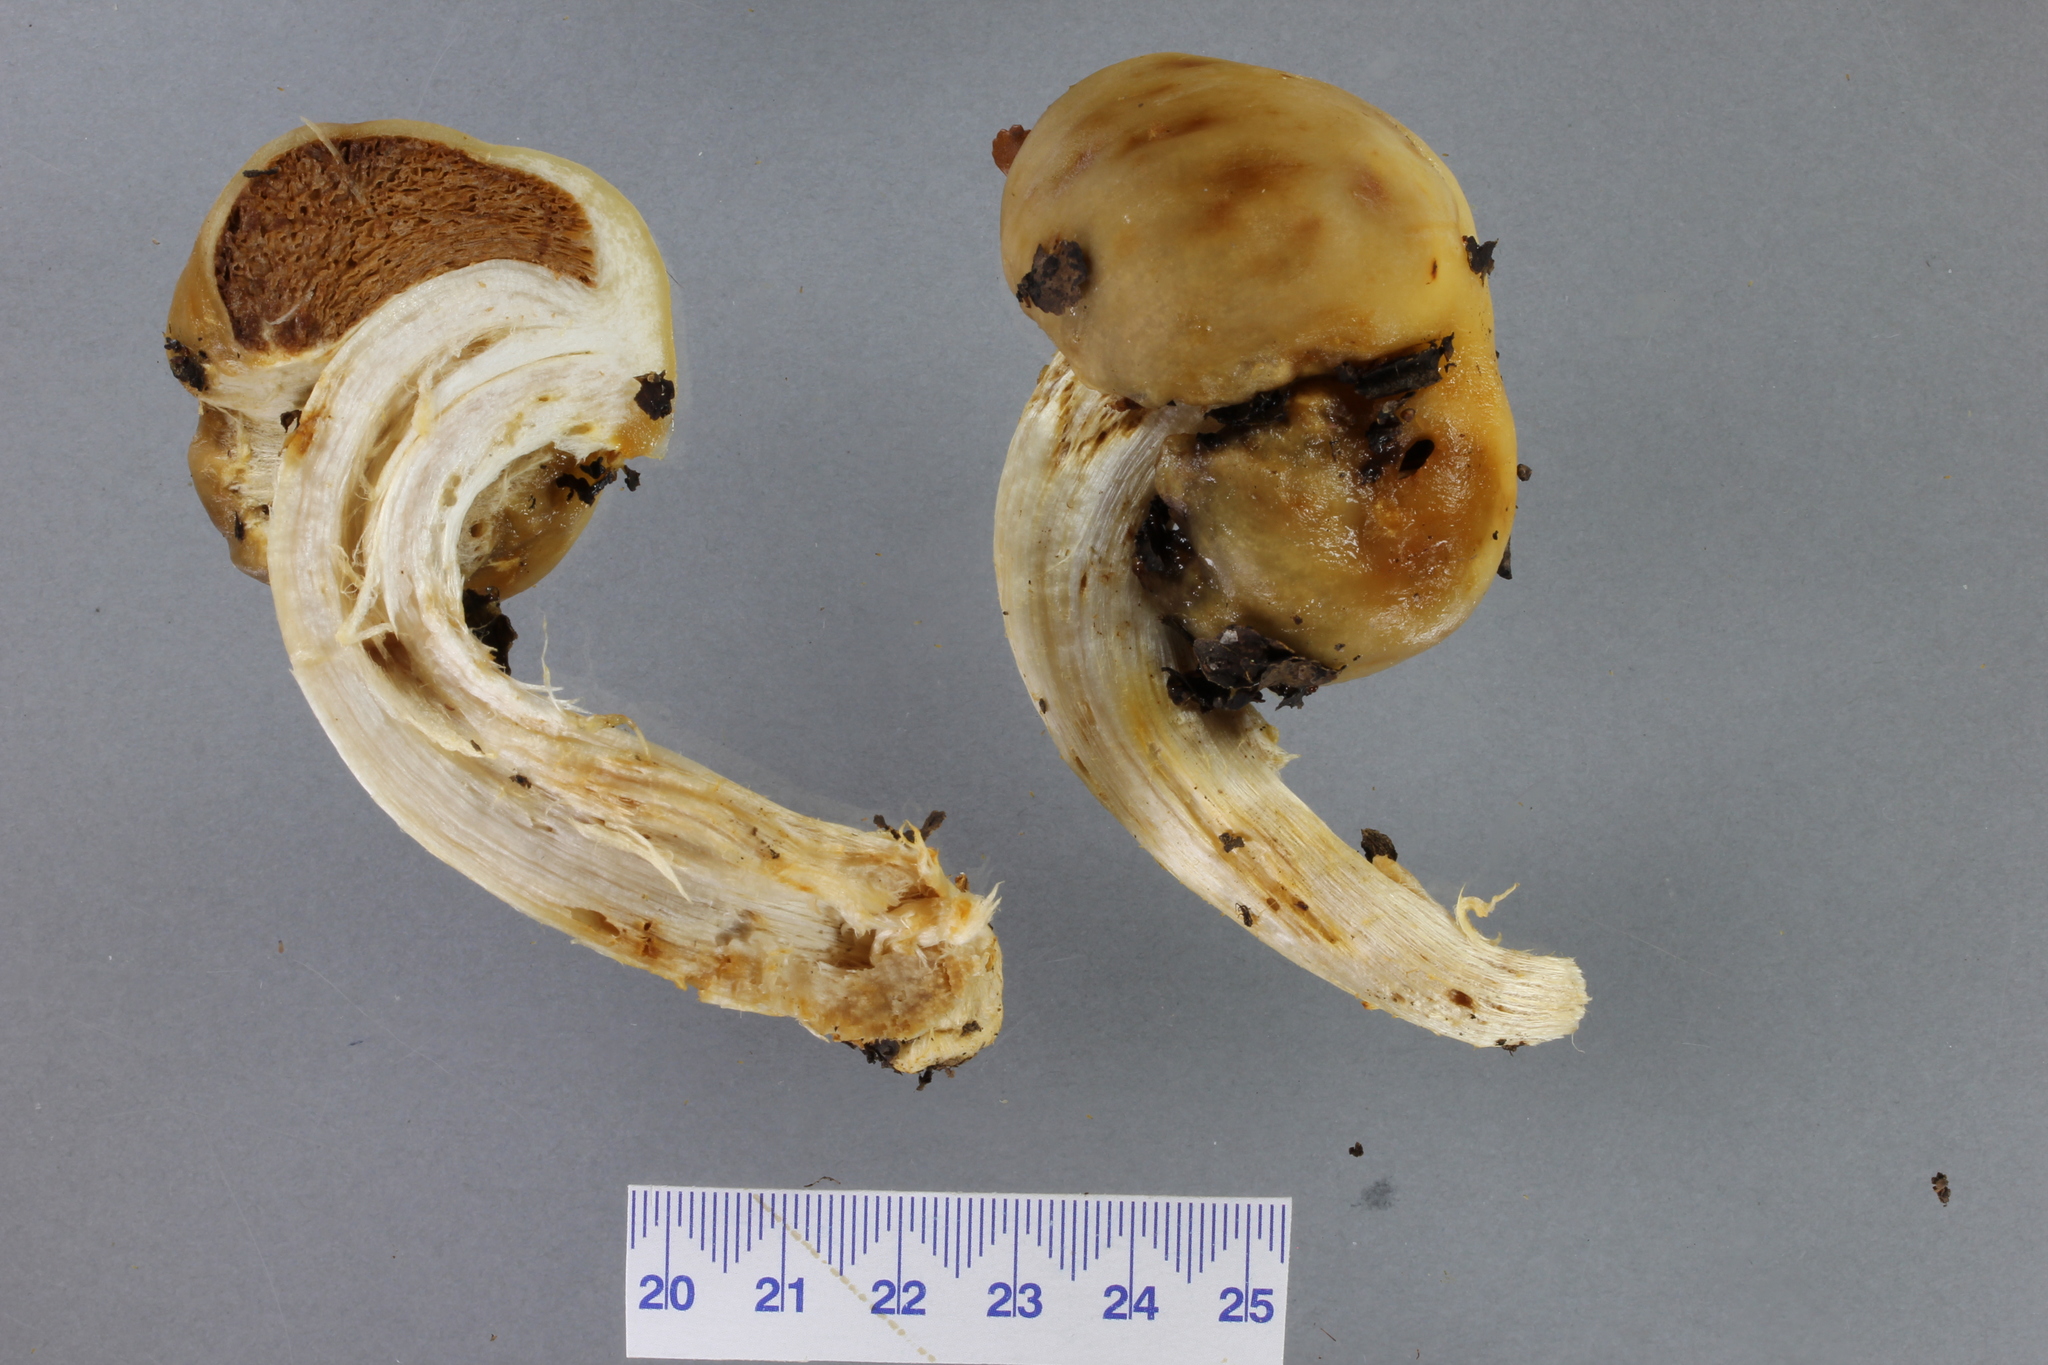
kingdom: Fungi
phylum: Basidiomycota
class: Agaricomycetes
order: Agaricales
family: Cortinariaceae
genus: Cortinarius
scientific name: Cortinarius epiphaeus
